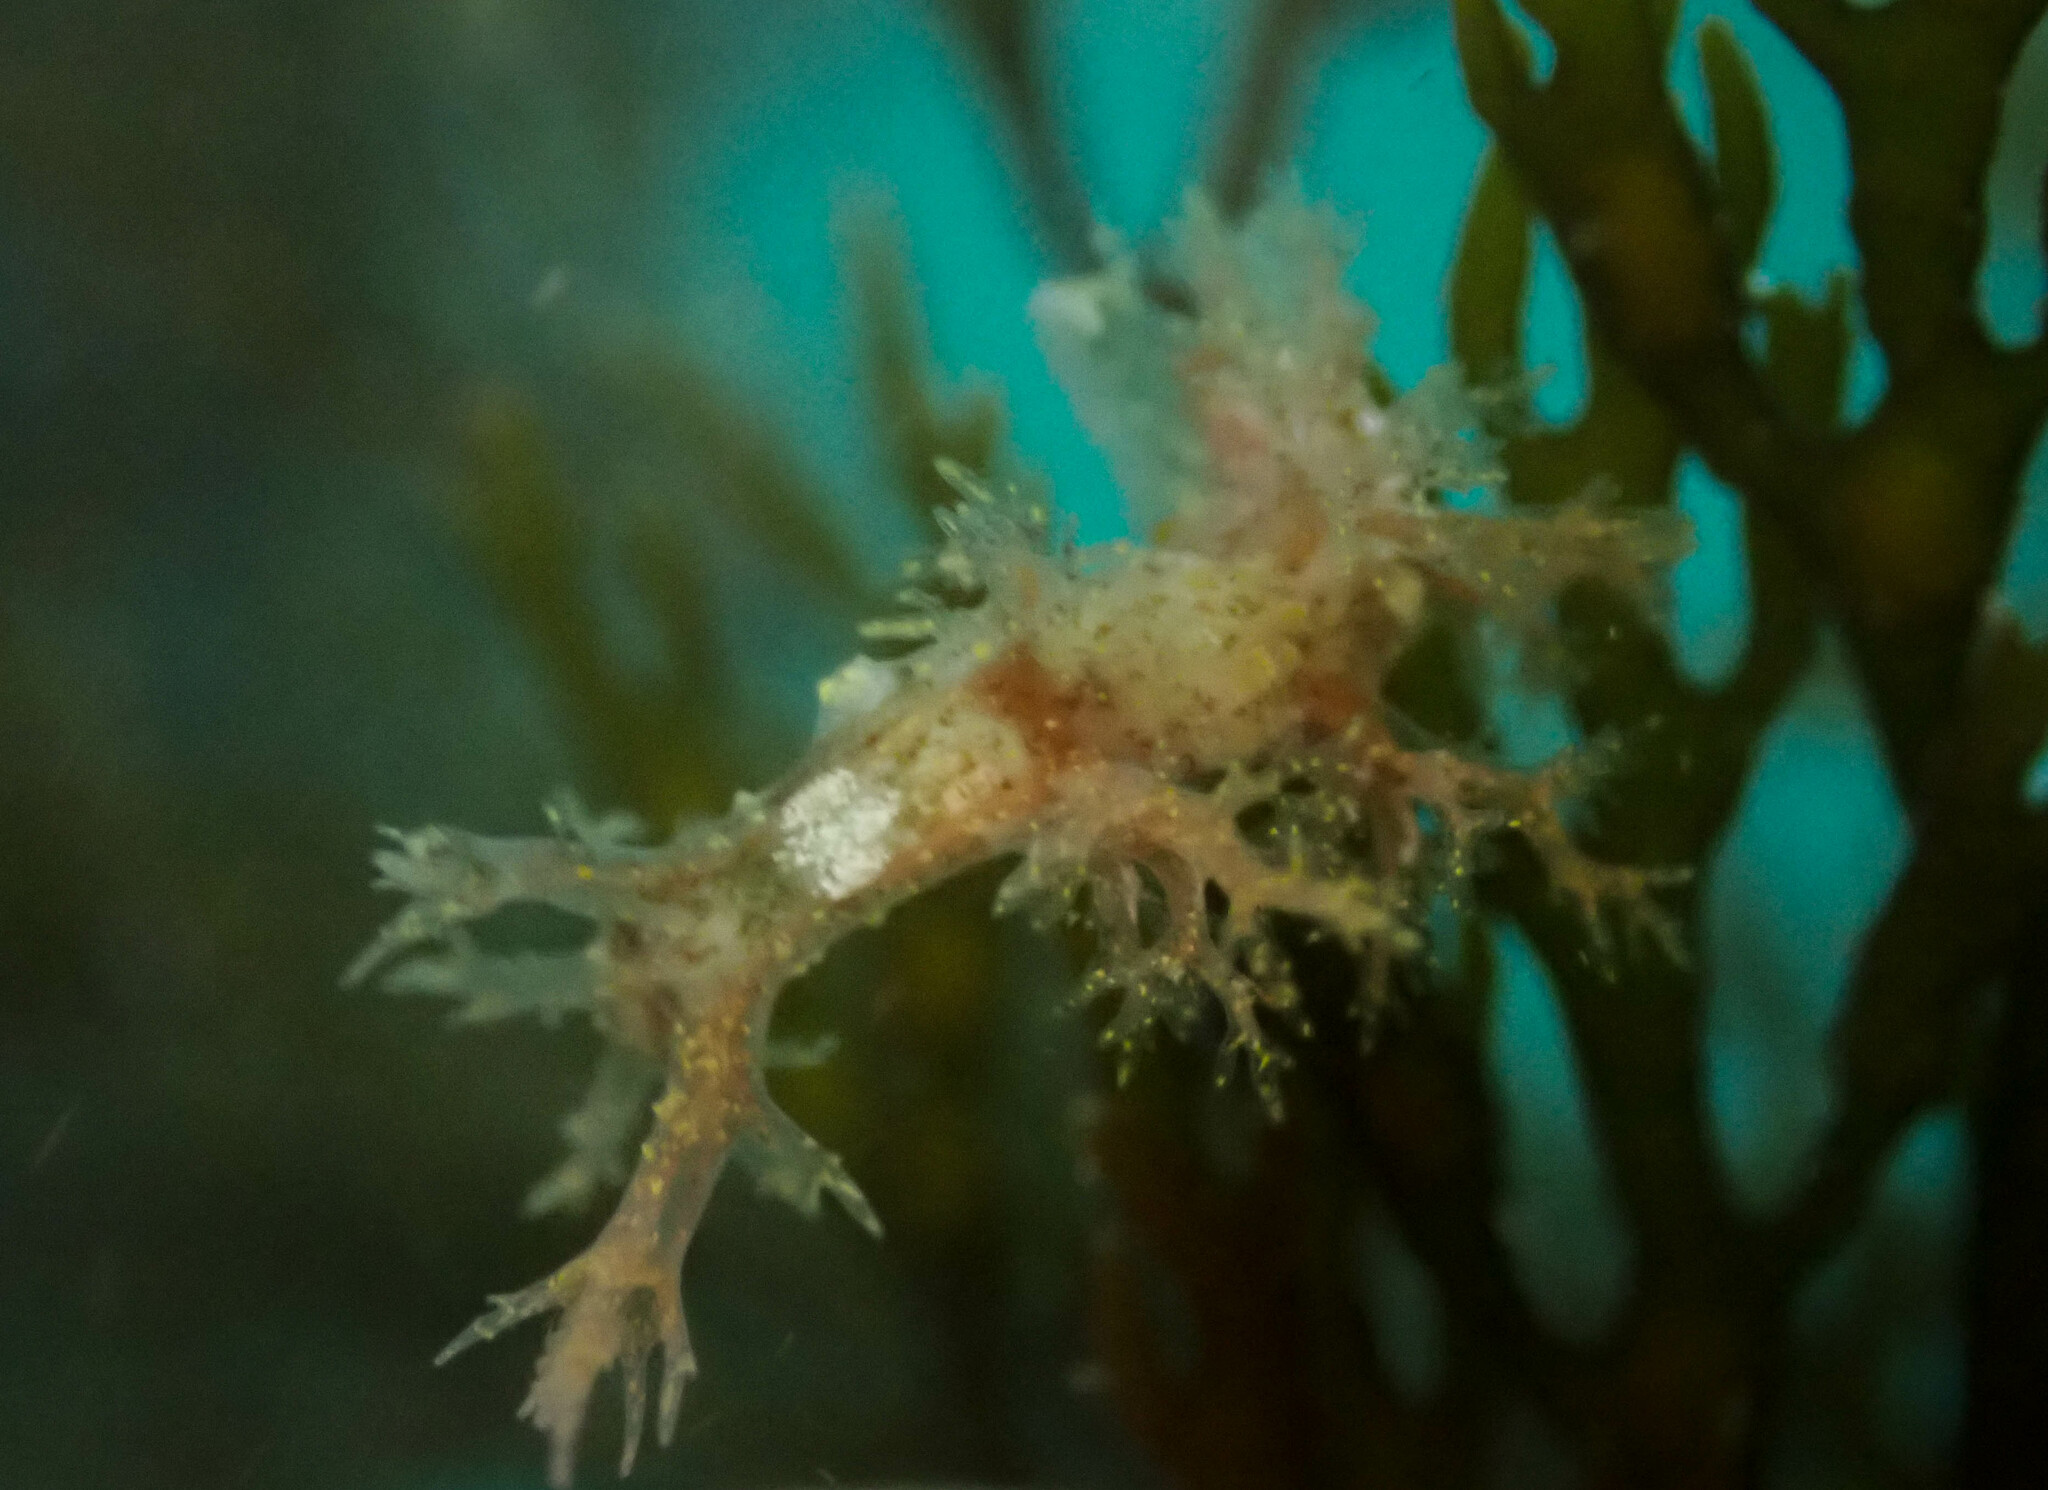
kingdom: Animalia
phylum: Mollusca
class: Gastropoda
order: Nudibranchia
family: Dendronotidae
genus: Dendronotus
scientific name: Dendronotus venustus
